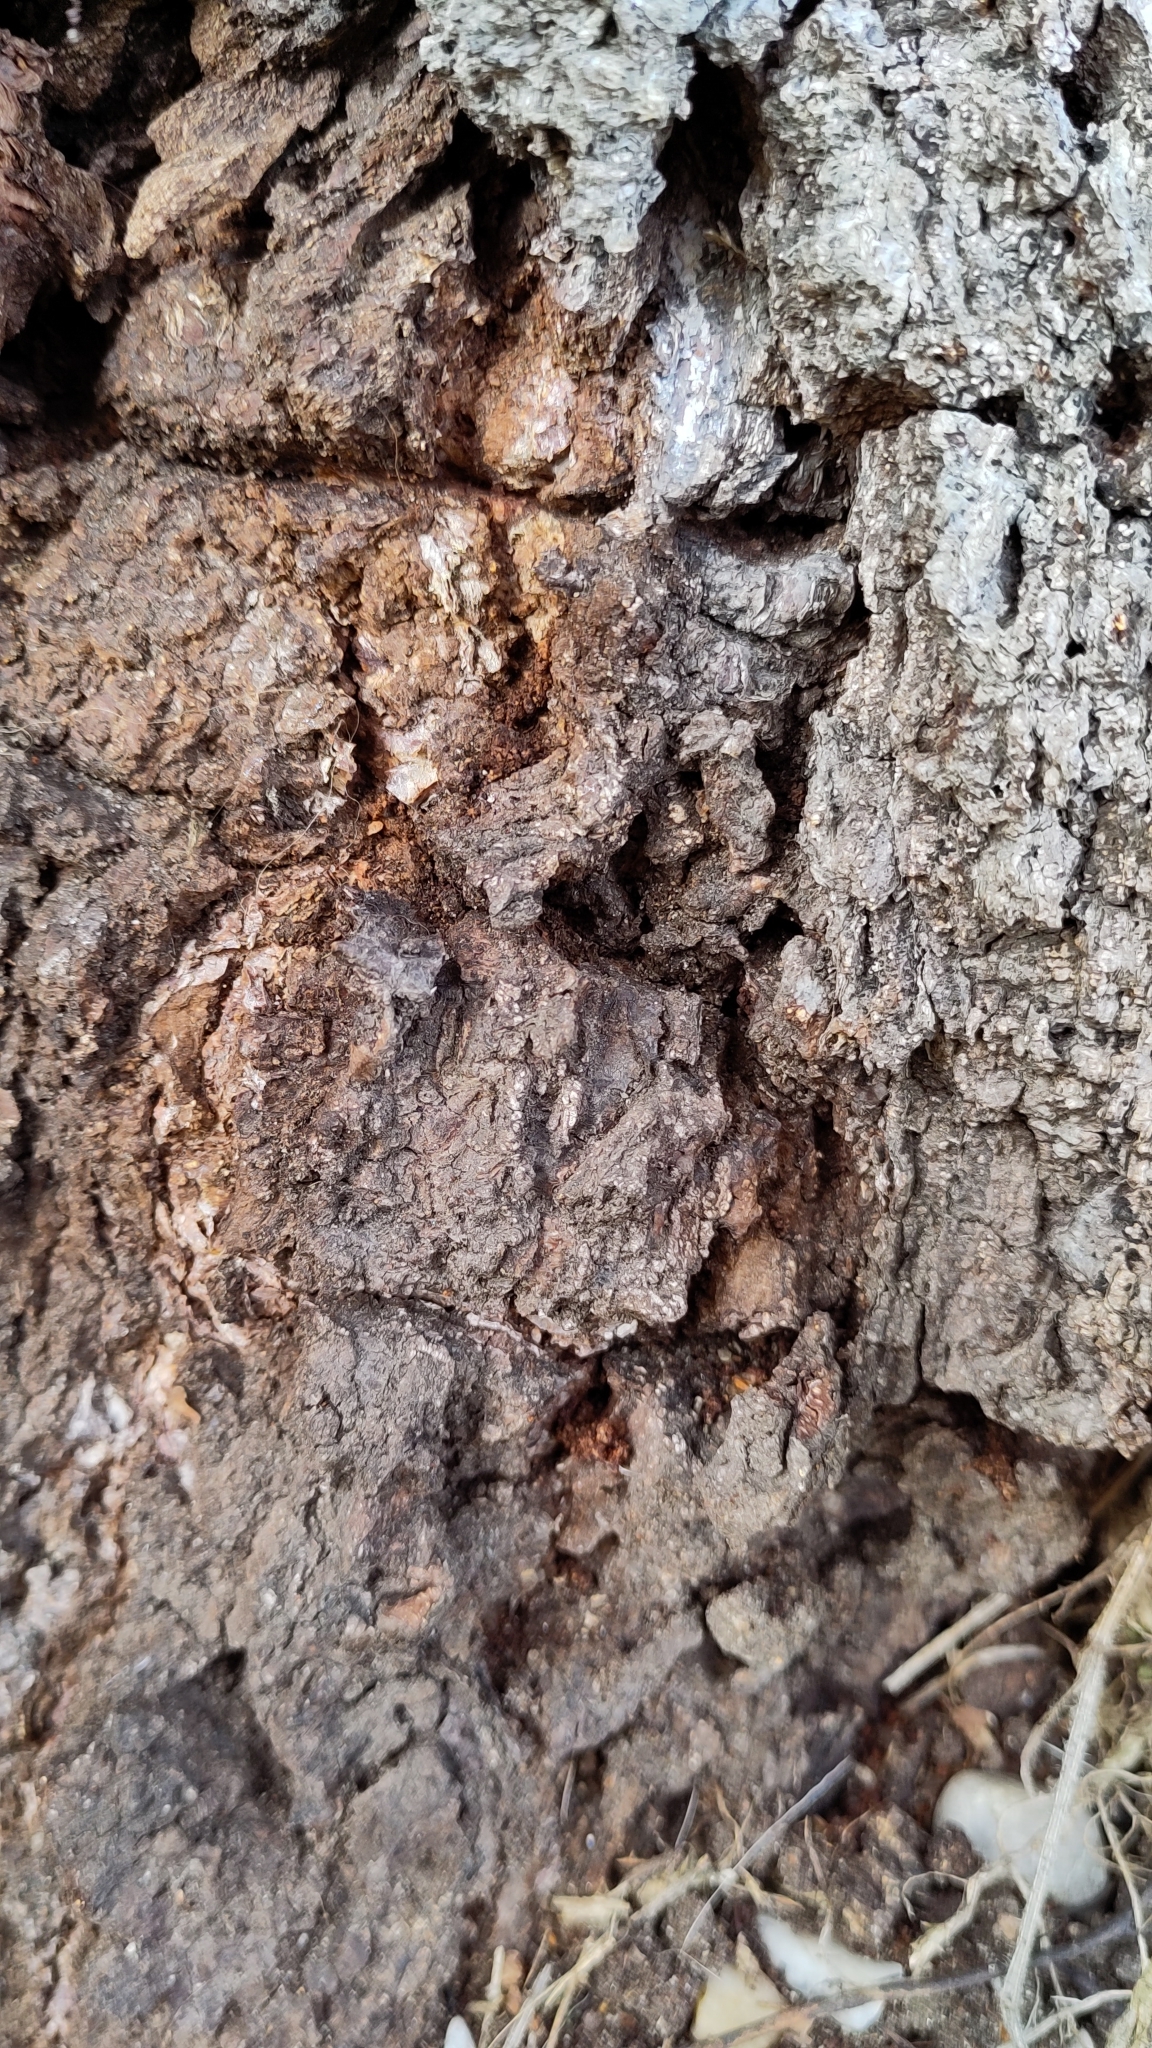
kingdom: Animalia
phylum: Arthropoda
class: Insecta
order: Lepidoptera
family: Sesiidae
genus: Synanthedon
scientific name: Synanthedon scoliaeformis
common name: Welsh clearwing
